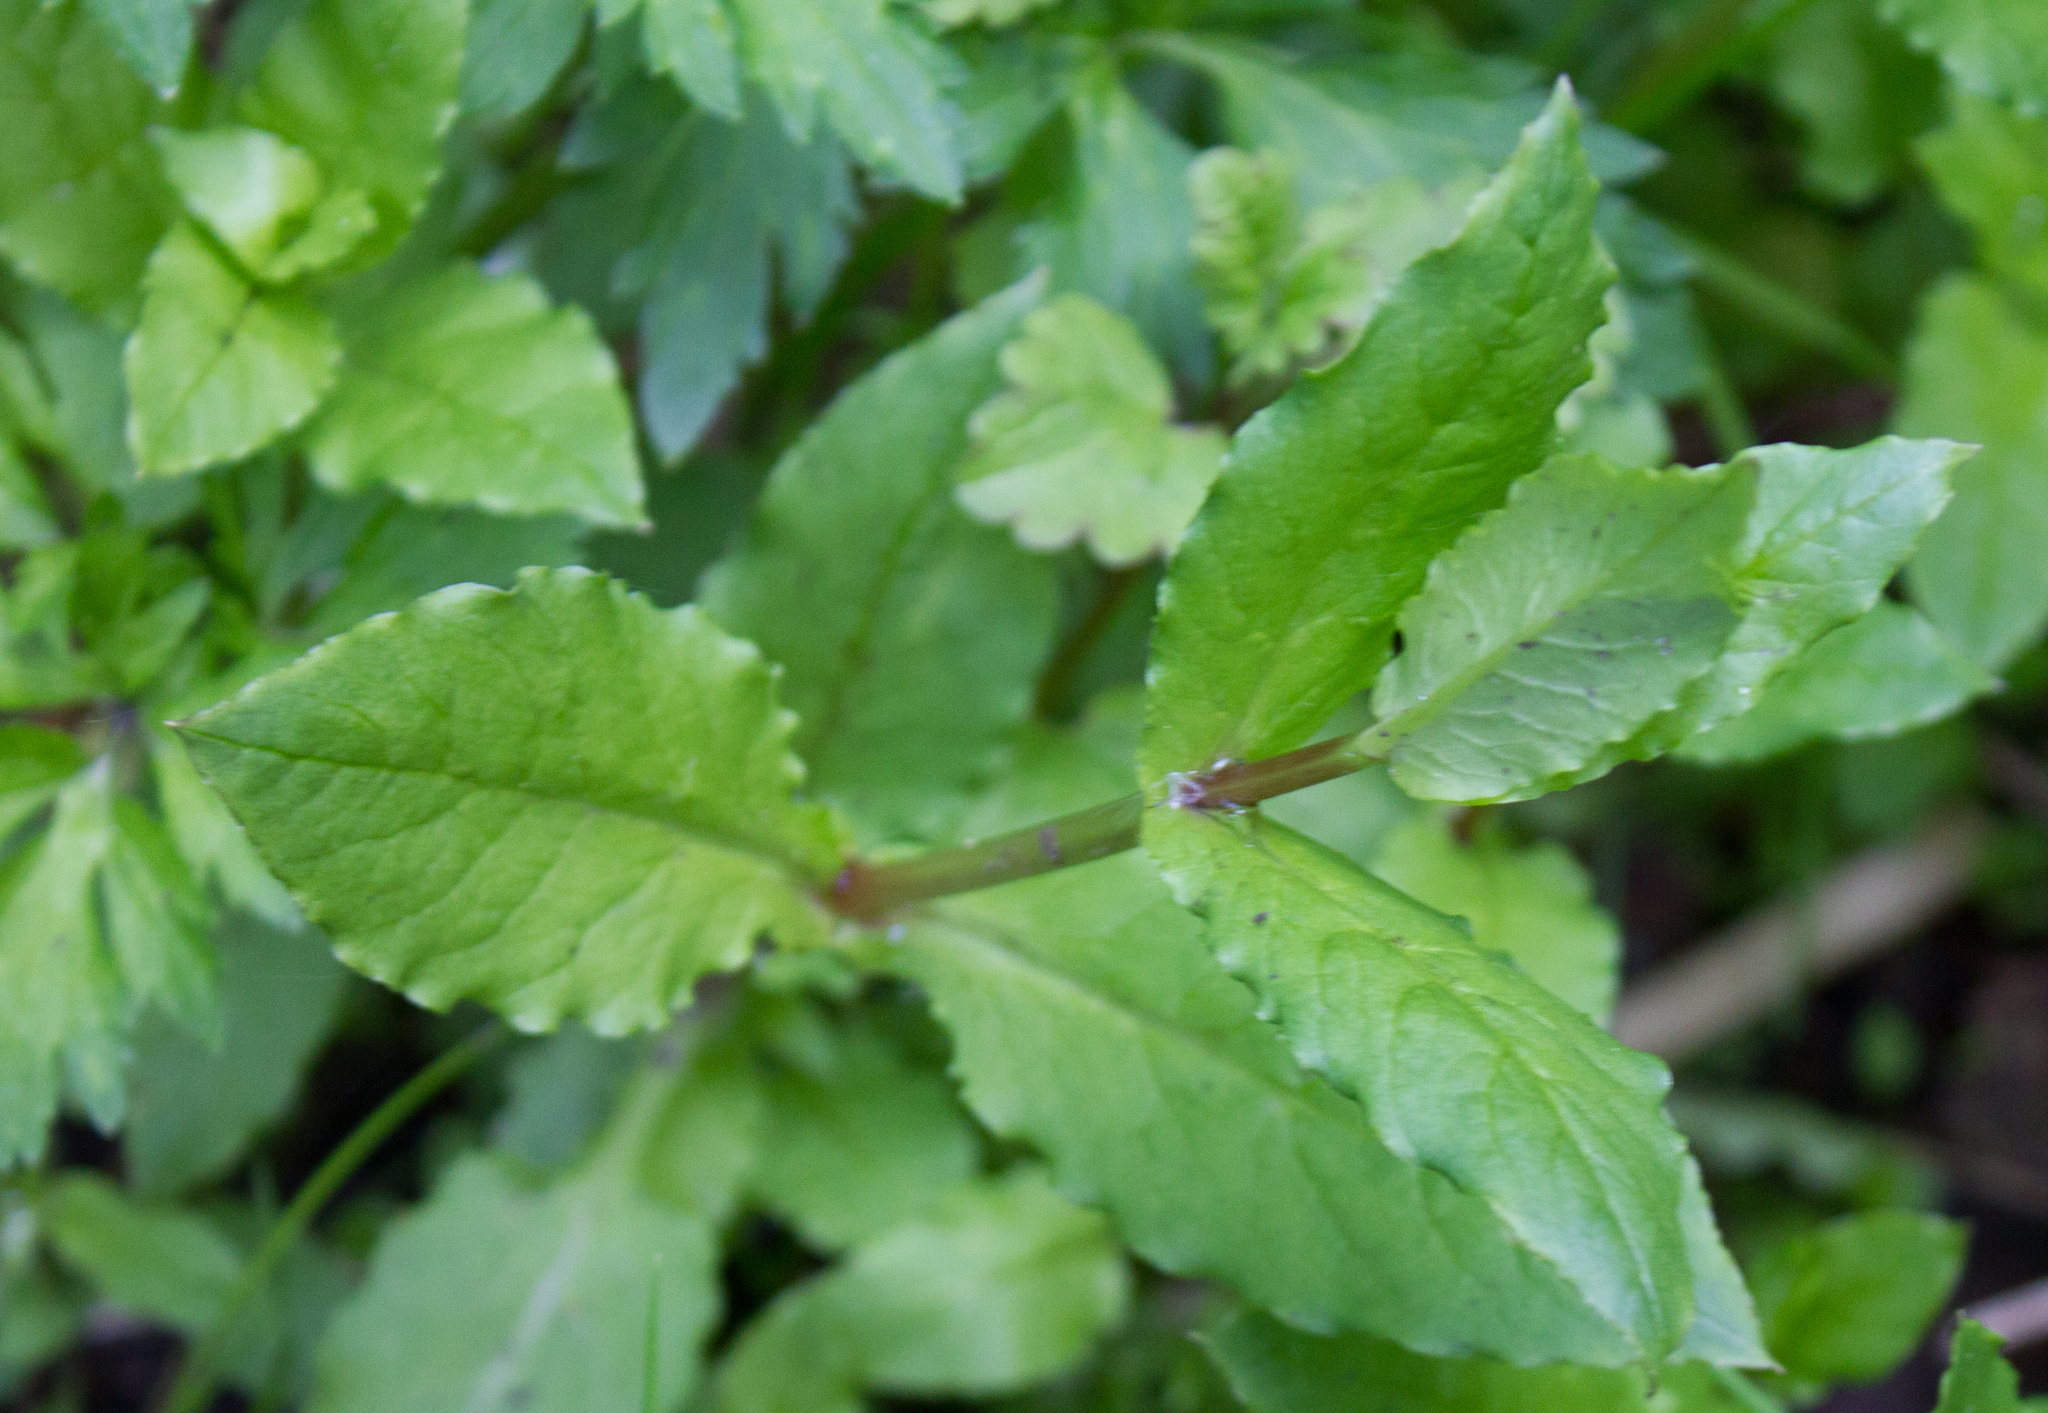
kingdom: Plantae
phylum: Tracheophyta
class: Magnoliopsida
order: Caryophyllales
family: Caryophyllaceae
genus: Stellaria
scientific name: Stellaria aquatica
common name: Water chickweed
